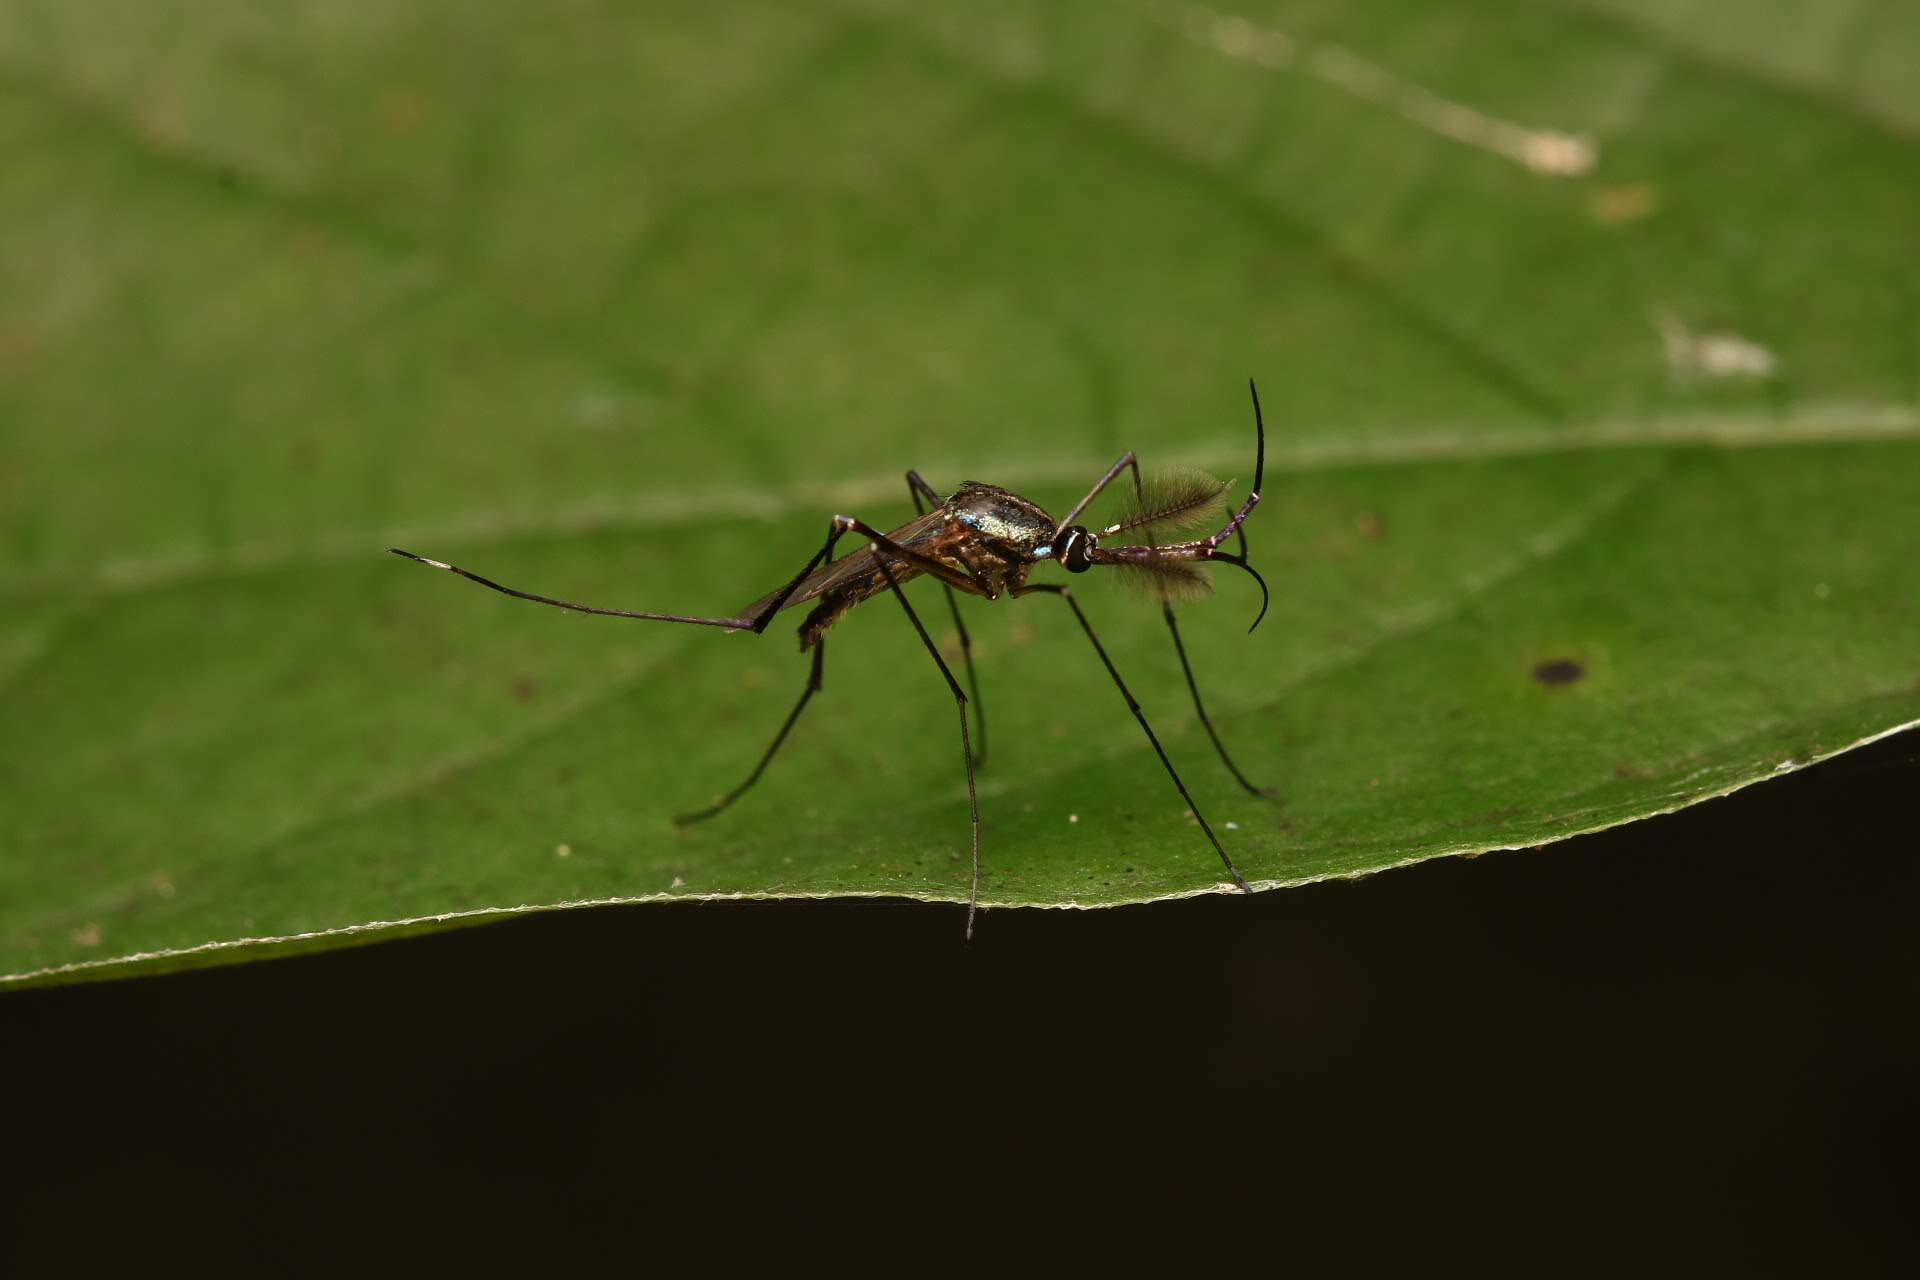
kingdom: Animalia
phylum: Arthropoda
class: Insecta
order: Diptera
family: Culicidae
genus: Toxorhynchites
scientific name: Toxorhynchites rutilus
